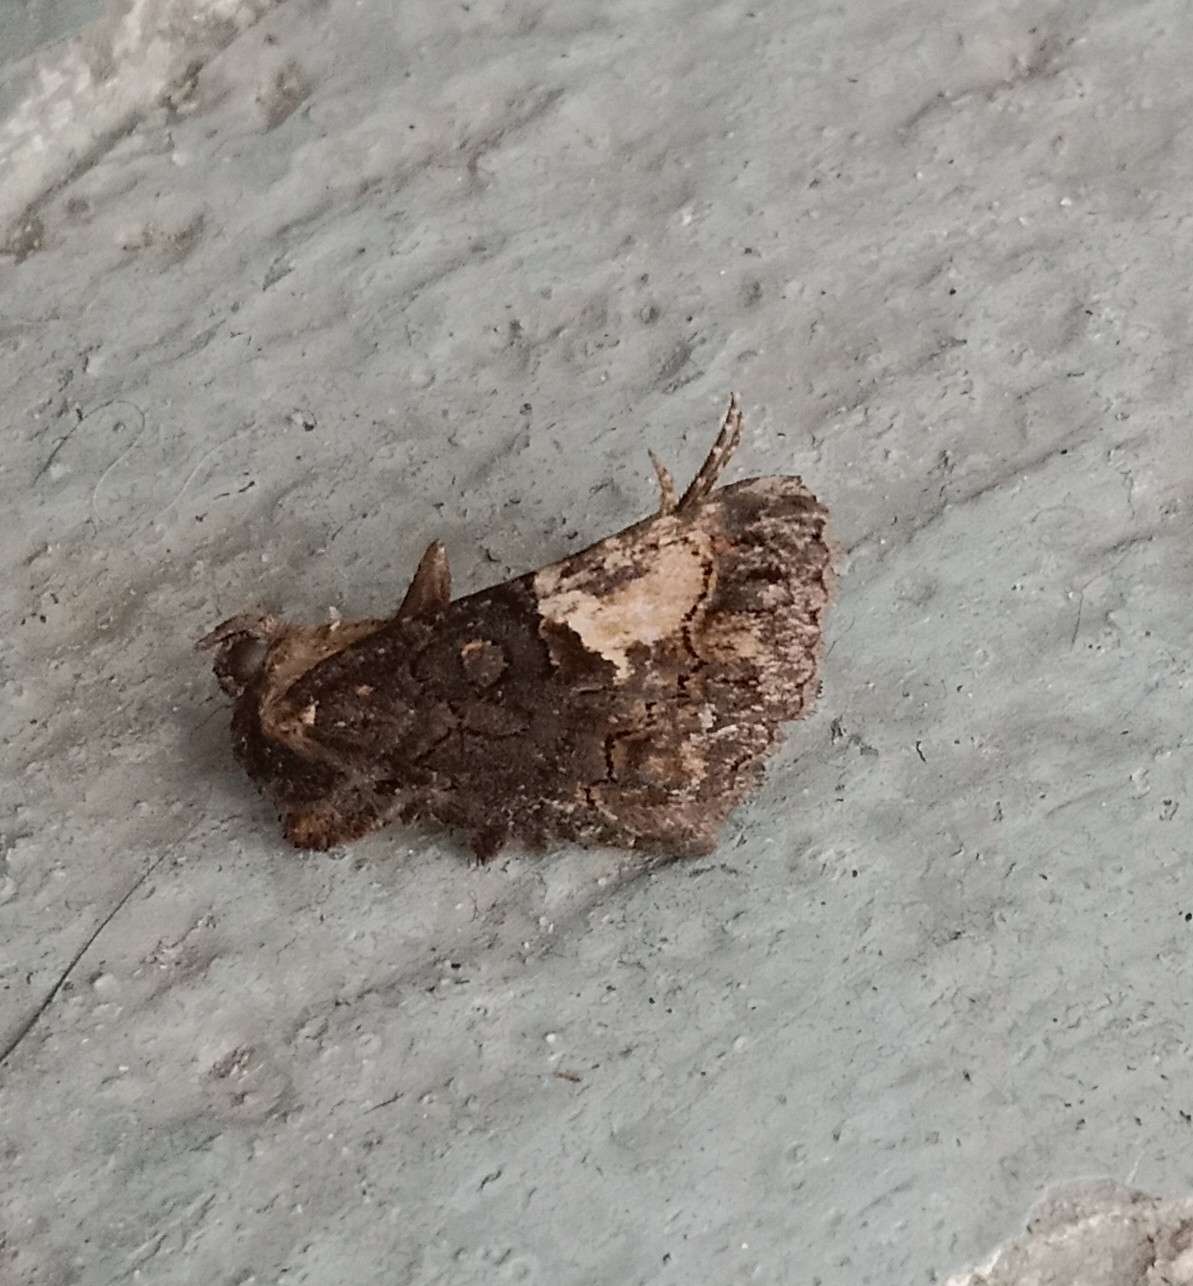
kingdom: Animalia
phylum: Arthropoda
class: Insecta
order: Lepidoptera
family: Noctuidae
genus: Aedia
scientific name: Aedia funesta
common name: The druid
